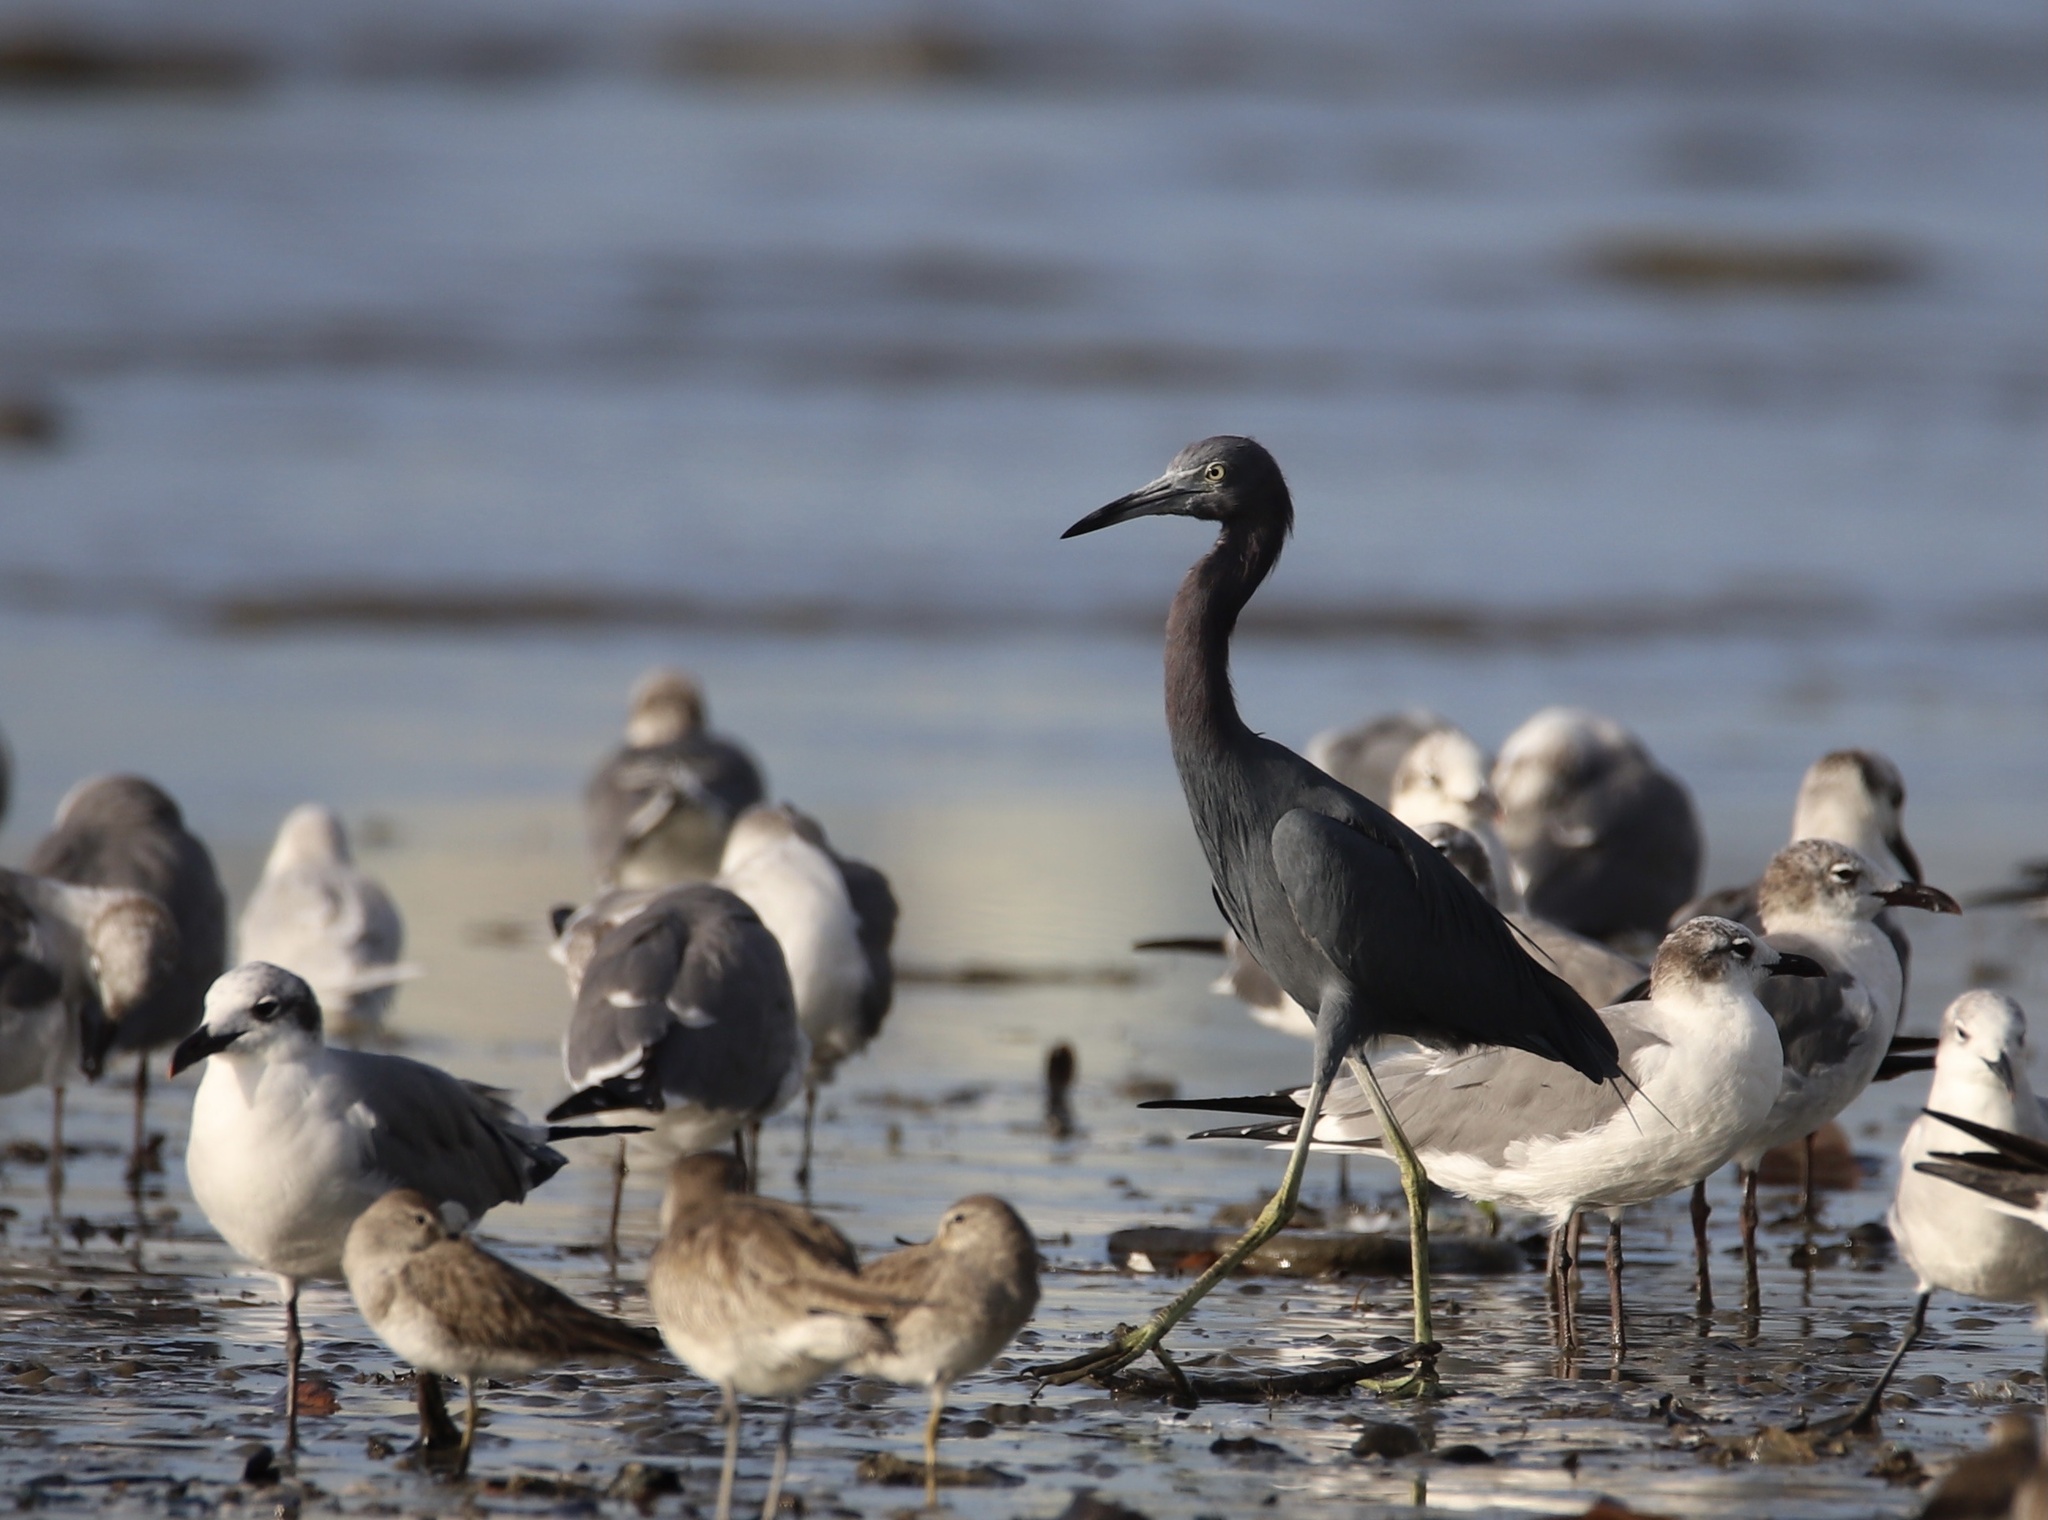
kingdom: Animalia
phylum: Chordata
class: Aves
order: Pelecaniformes
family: Ardeidae
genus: Egretta
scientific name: Egretta caerulea
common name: Little blue heron
